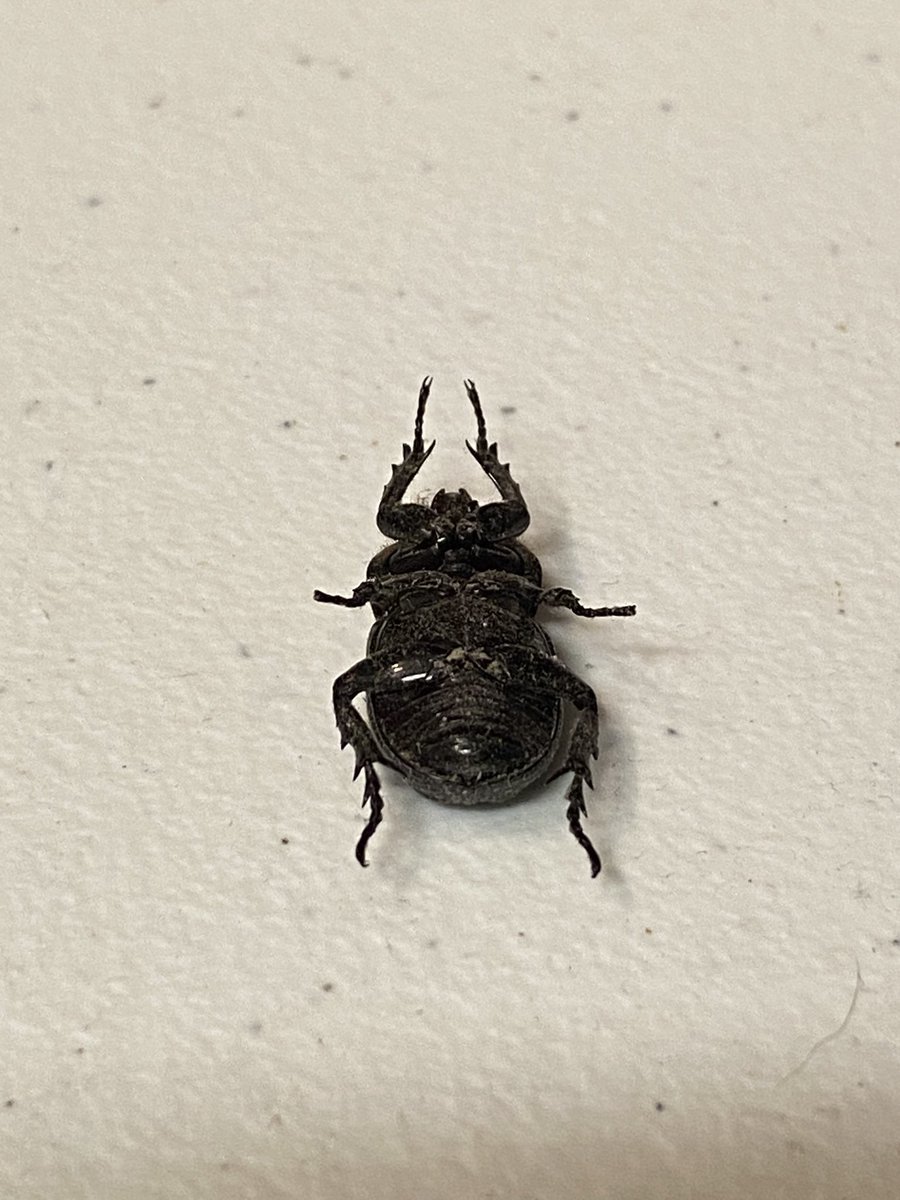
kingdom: Animalia
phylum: Arthropoda
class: Insecta
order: Coleoptera
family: Scarabaeidae
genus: Phileurus
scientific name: Phileurus valgus
